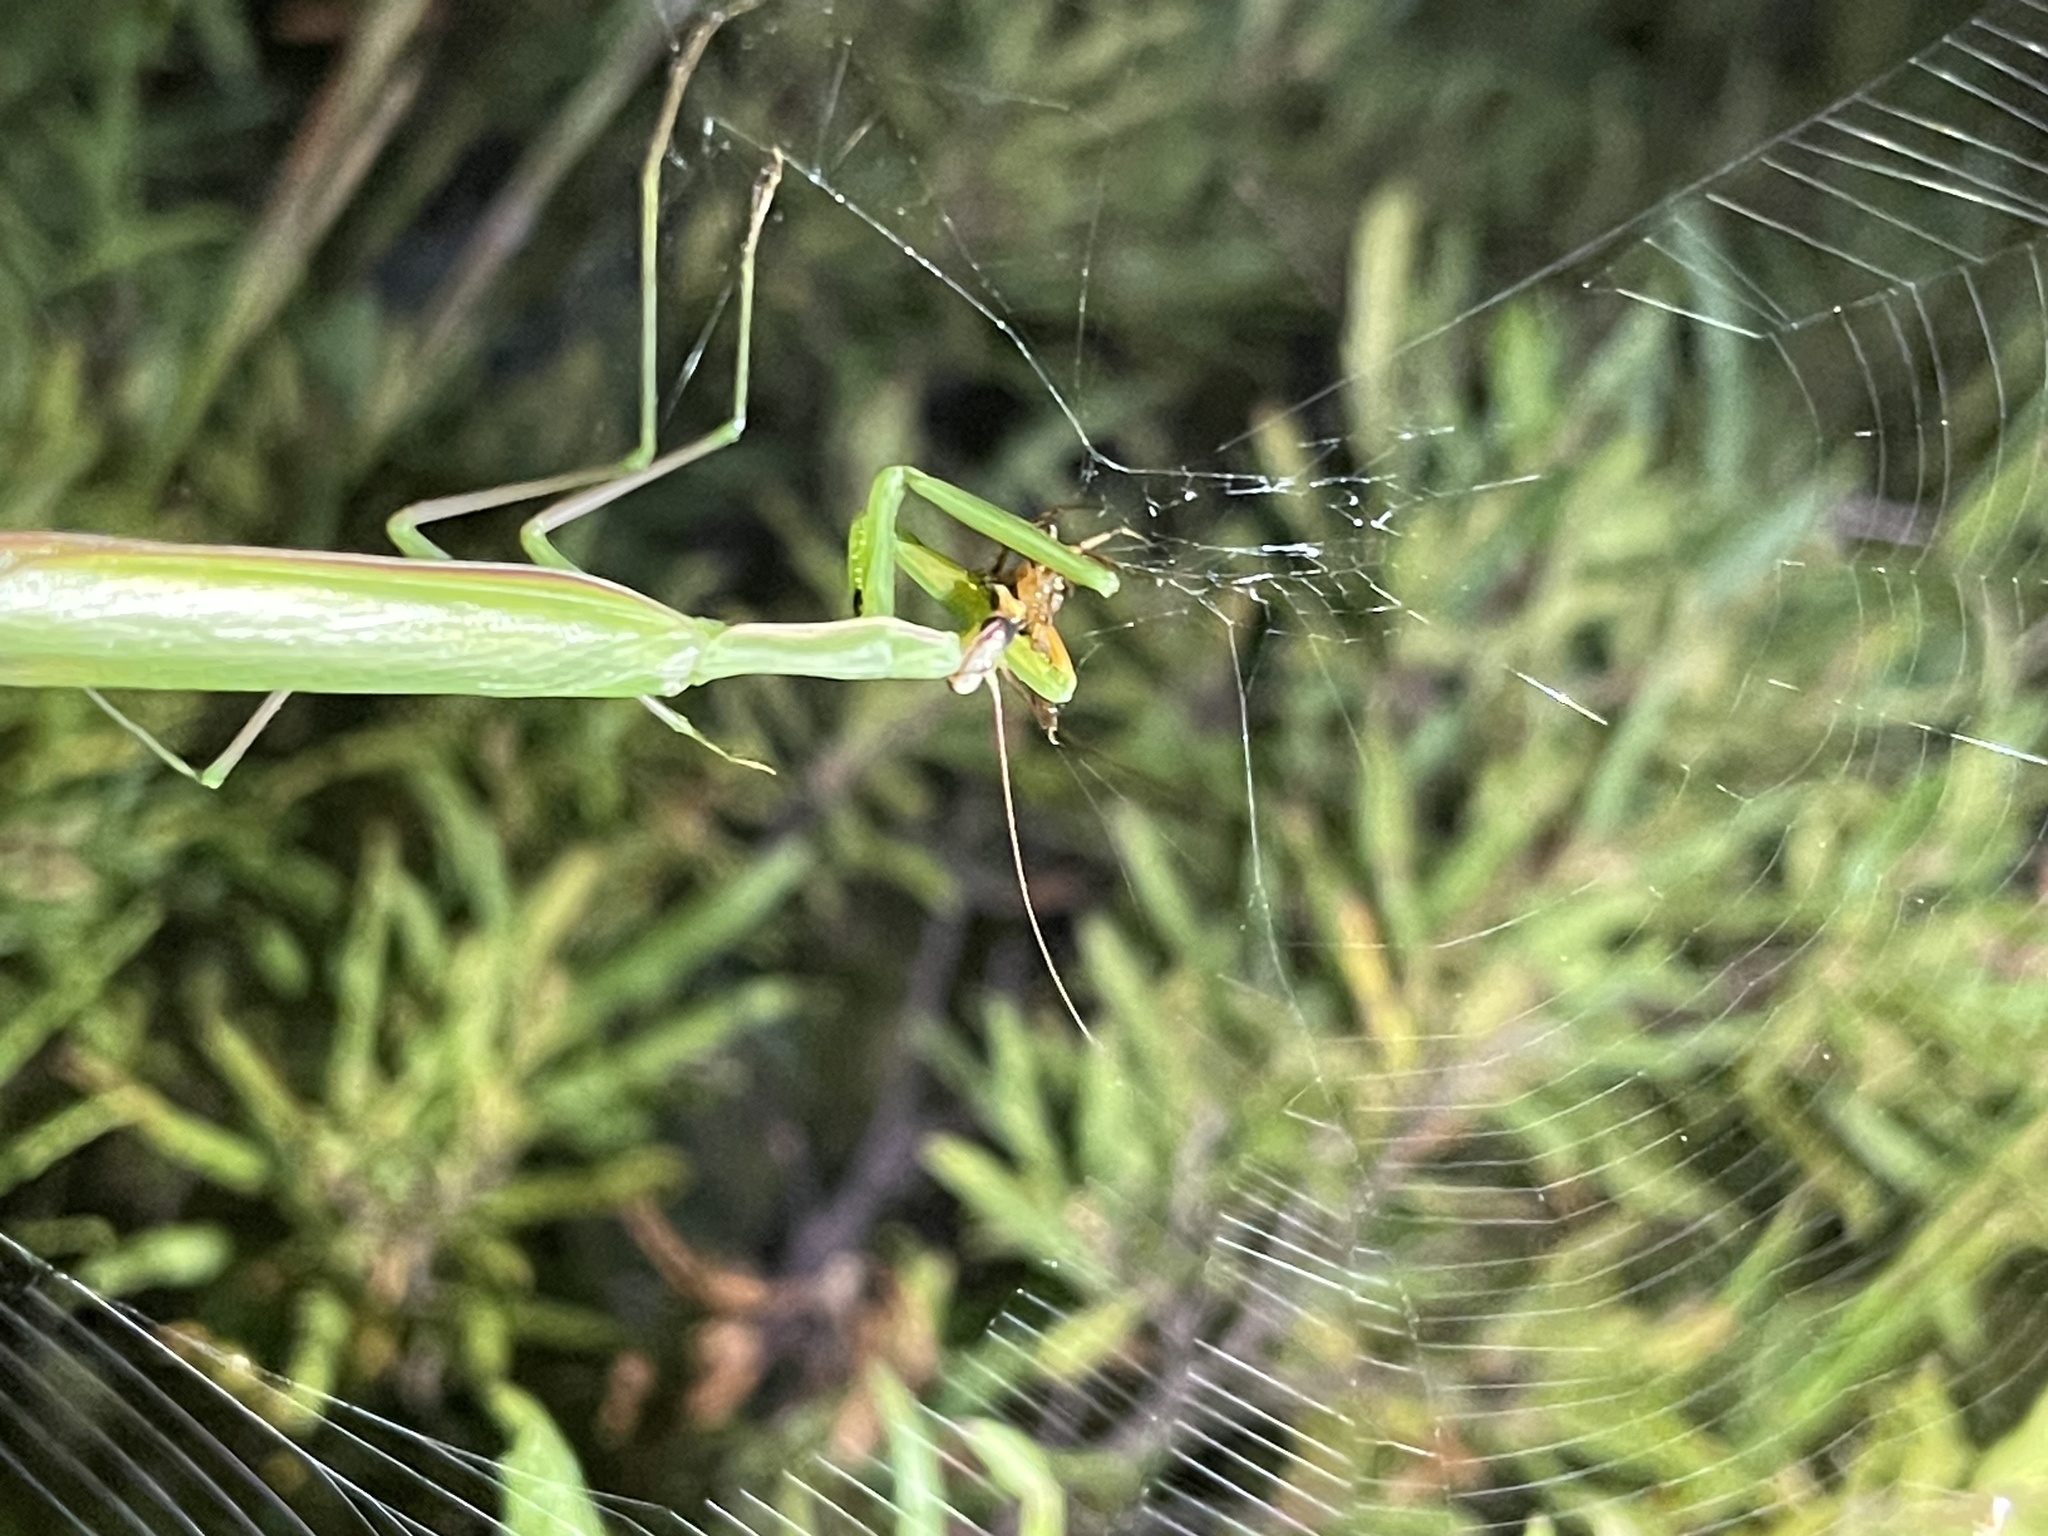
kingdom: Animalia
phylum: Arthropoda
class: Insecta
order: Mantodea
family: Mantidae
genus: Mantis
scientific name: Mantis religiosa
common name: Praying mantis
